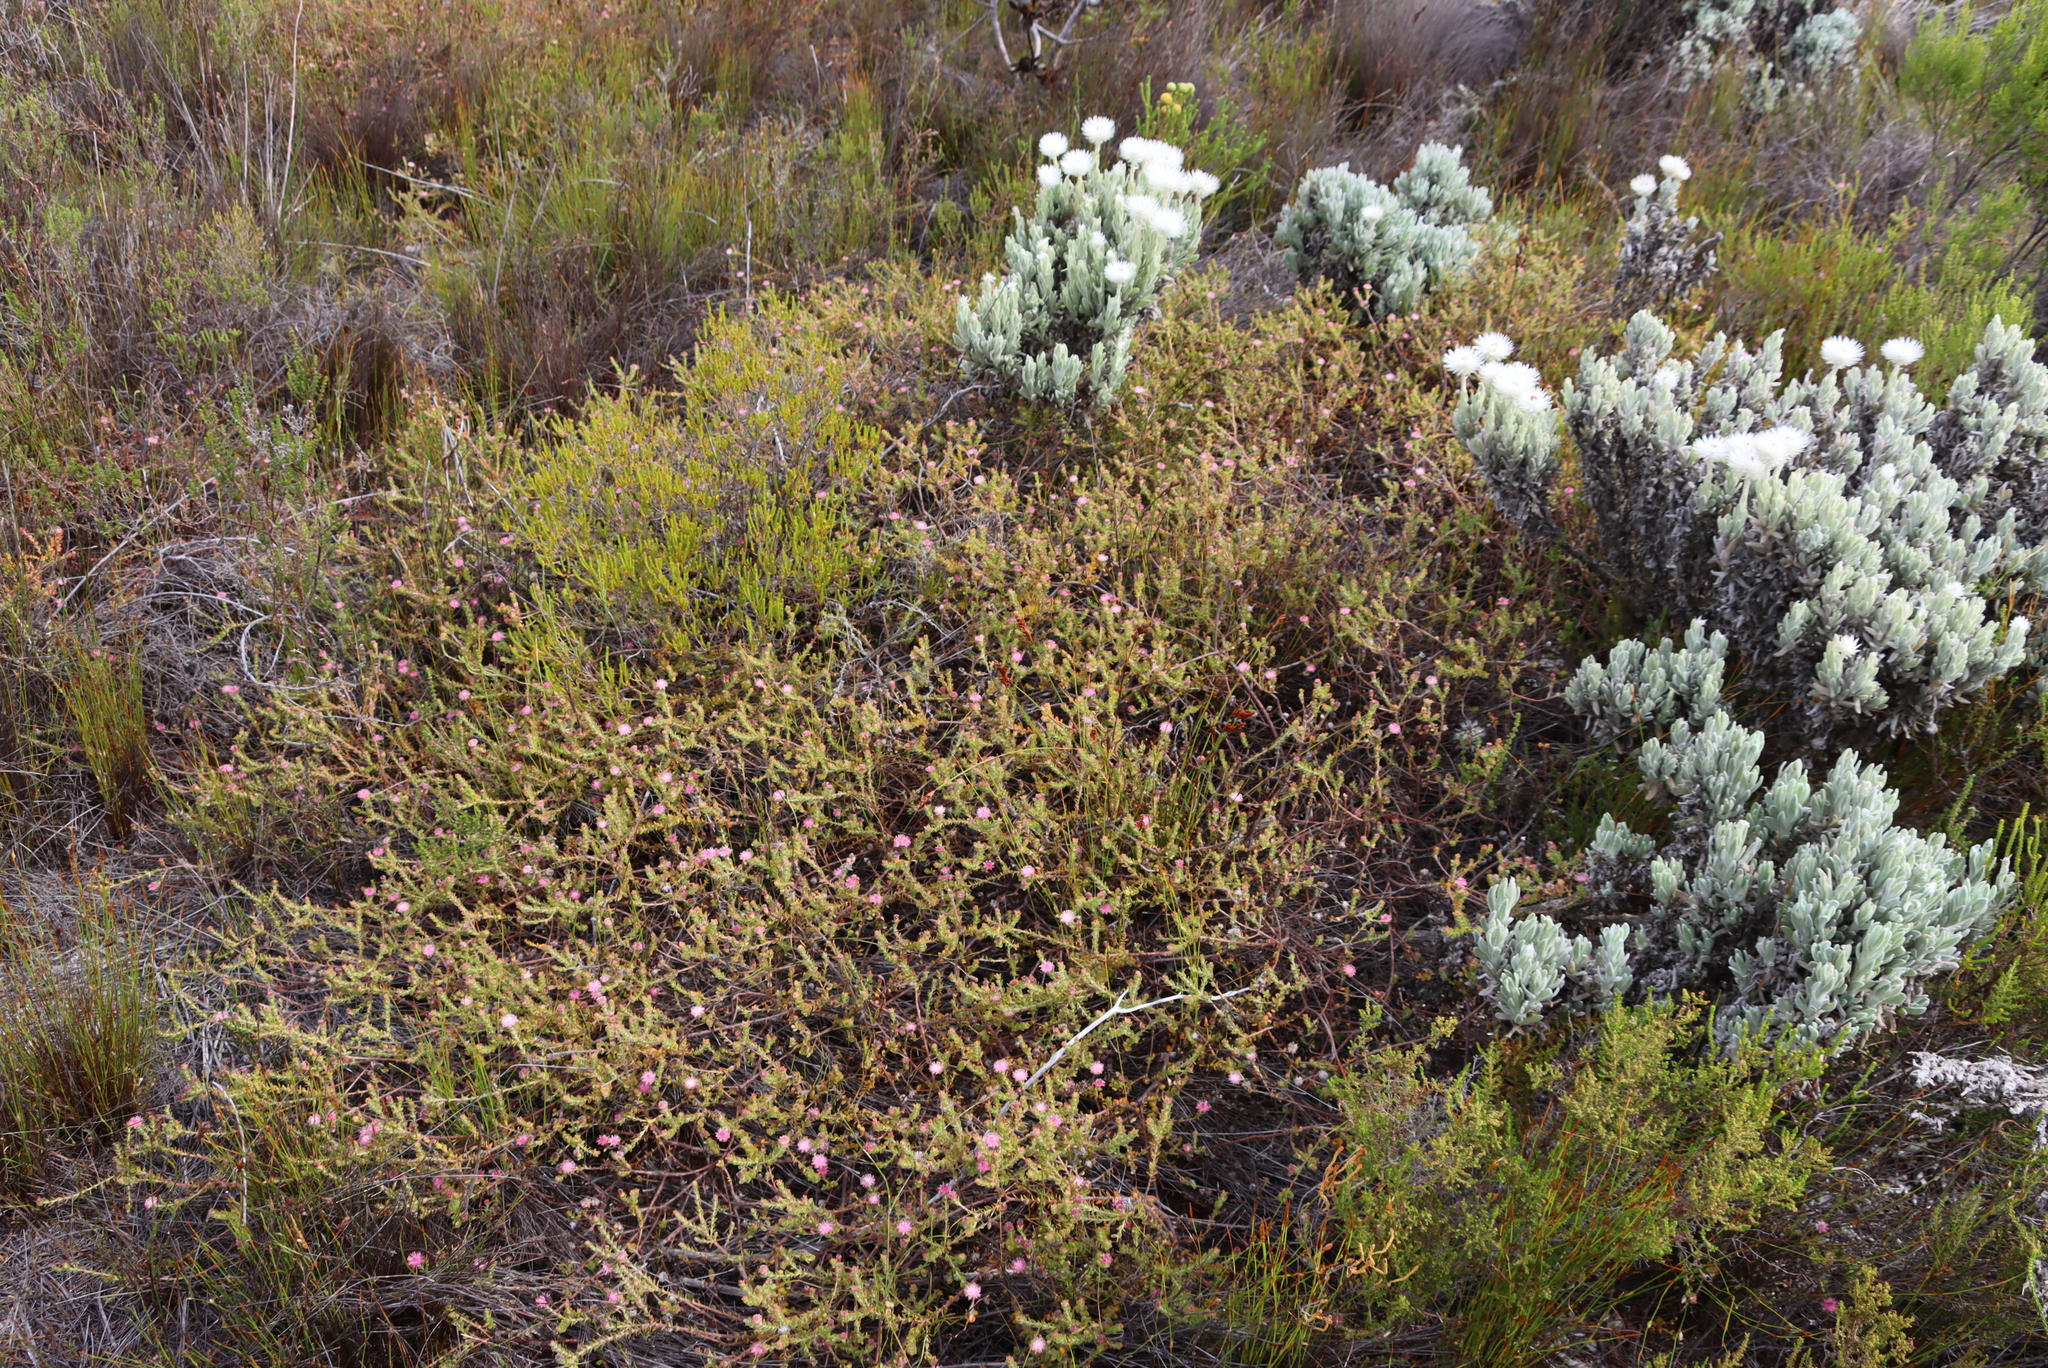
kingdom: Plantae
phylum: Tracheophyta
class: Magnoliopsida
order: Proteales
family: Proteaceae
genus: Diastella
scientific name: Diastella divaricata
